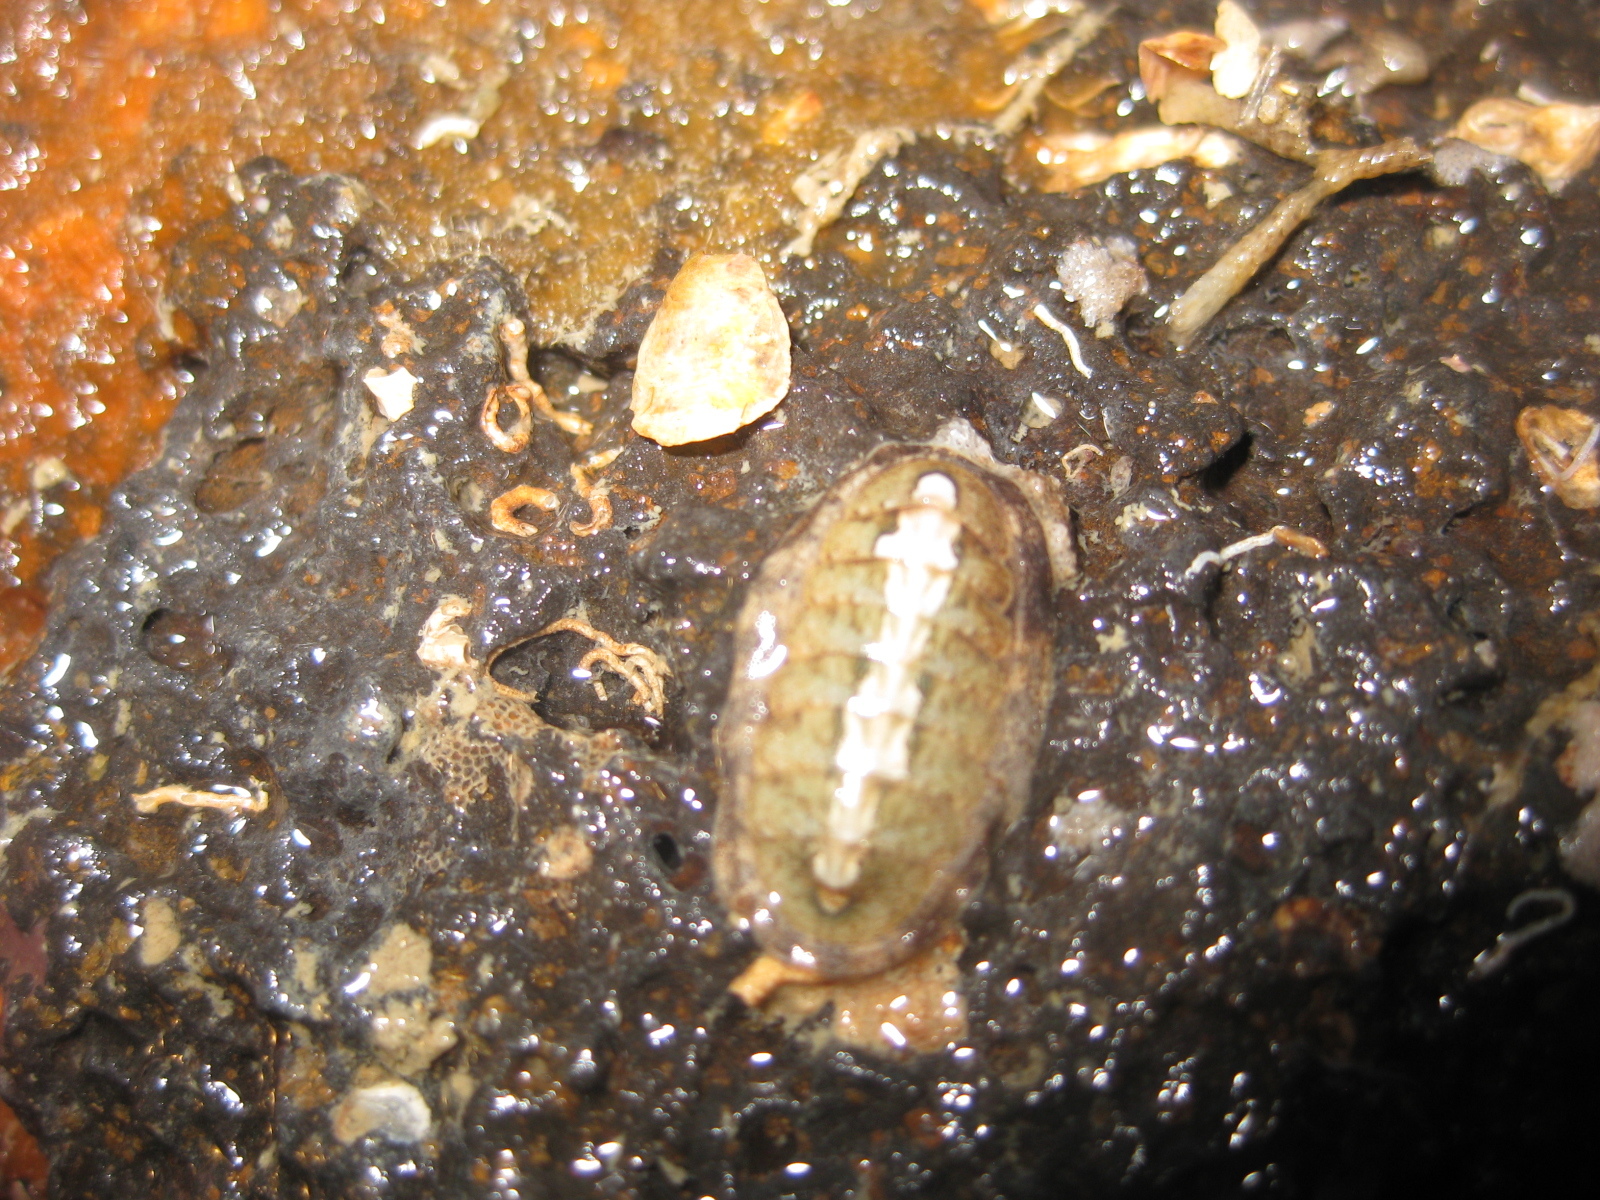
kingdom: Animalia
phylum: Mollusca
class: Polyplacophora
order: Chitonida
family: Ischnochitonidae
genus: Ischnochiton
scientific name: Ischnochiton maorianus
